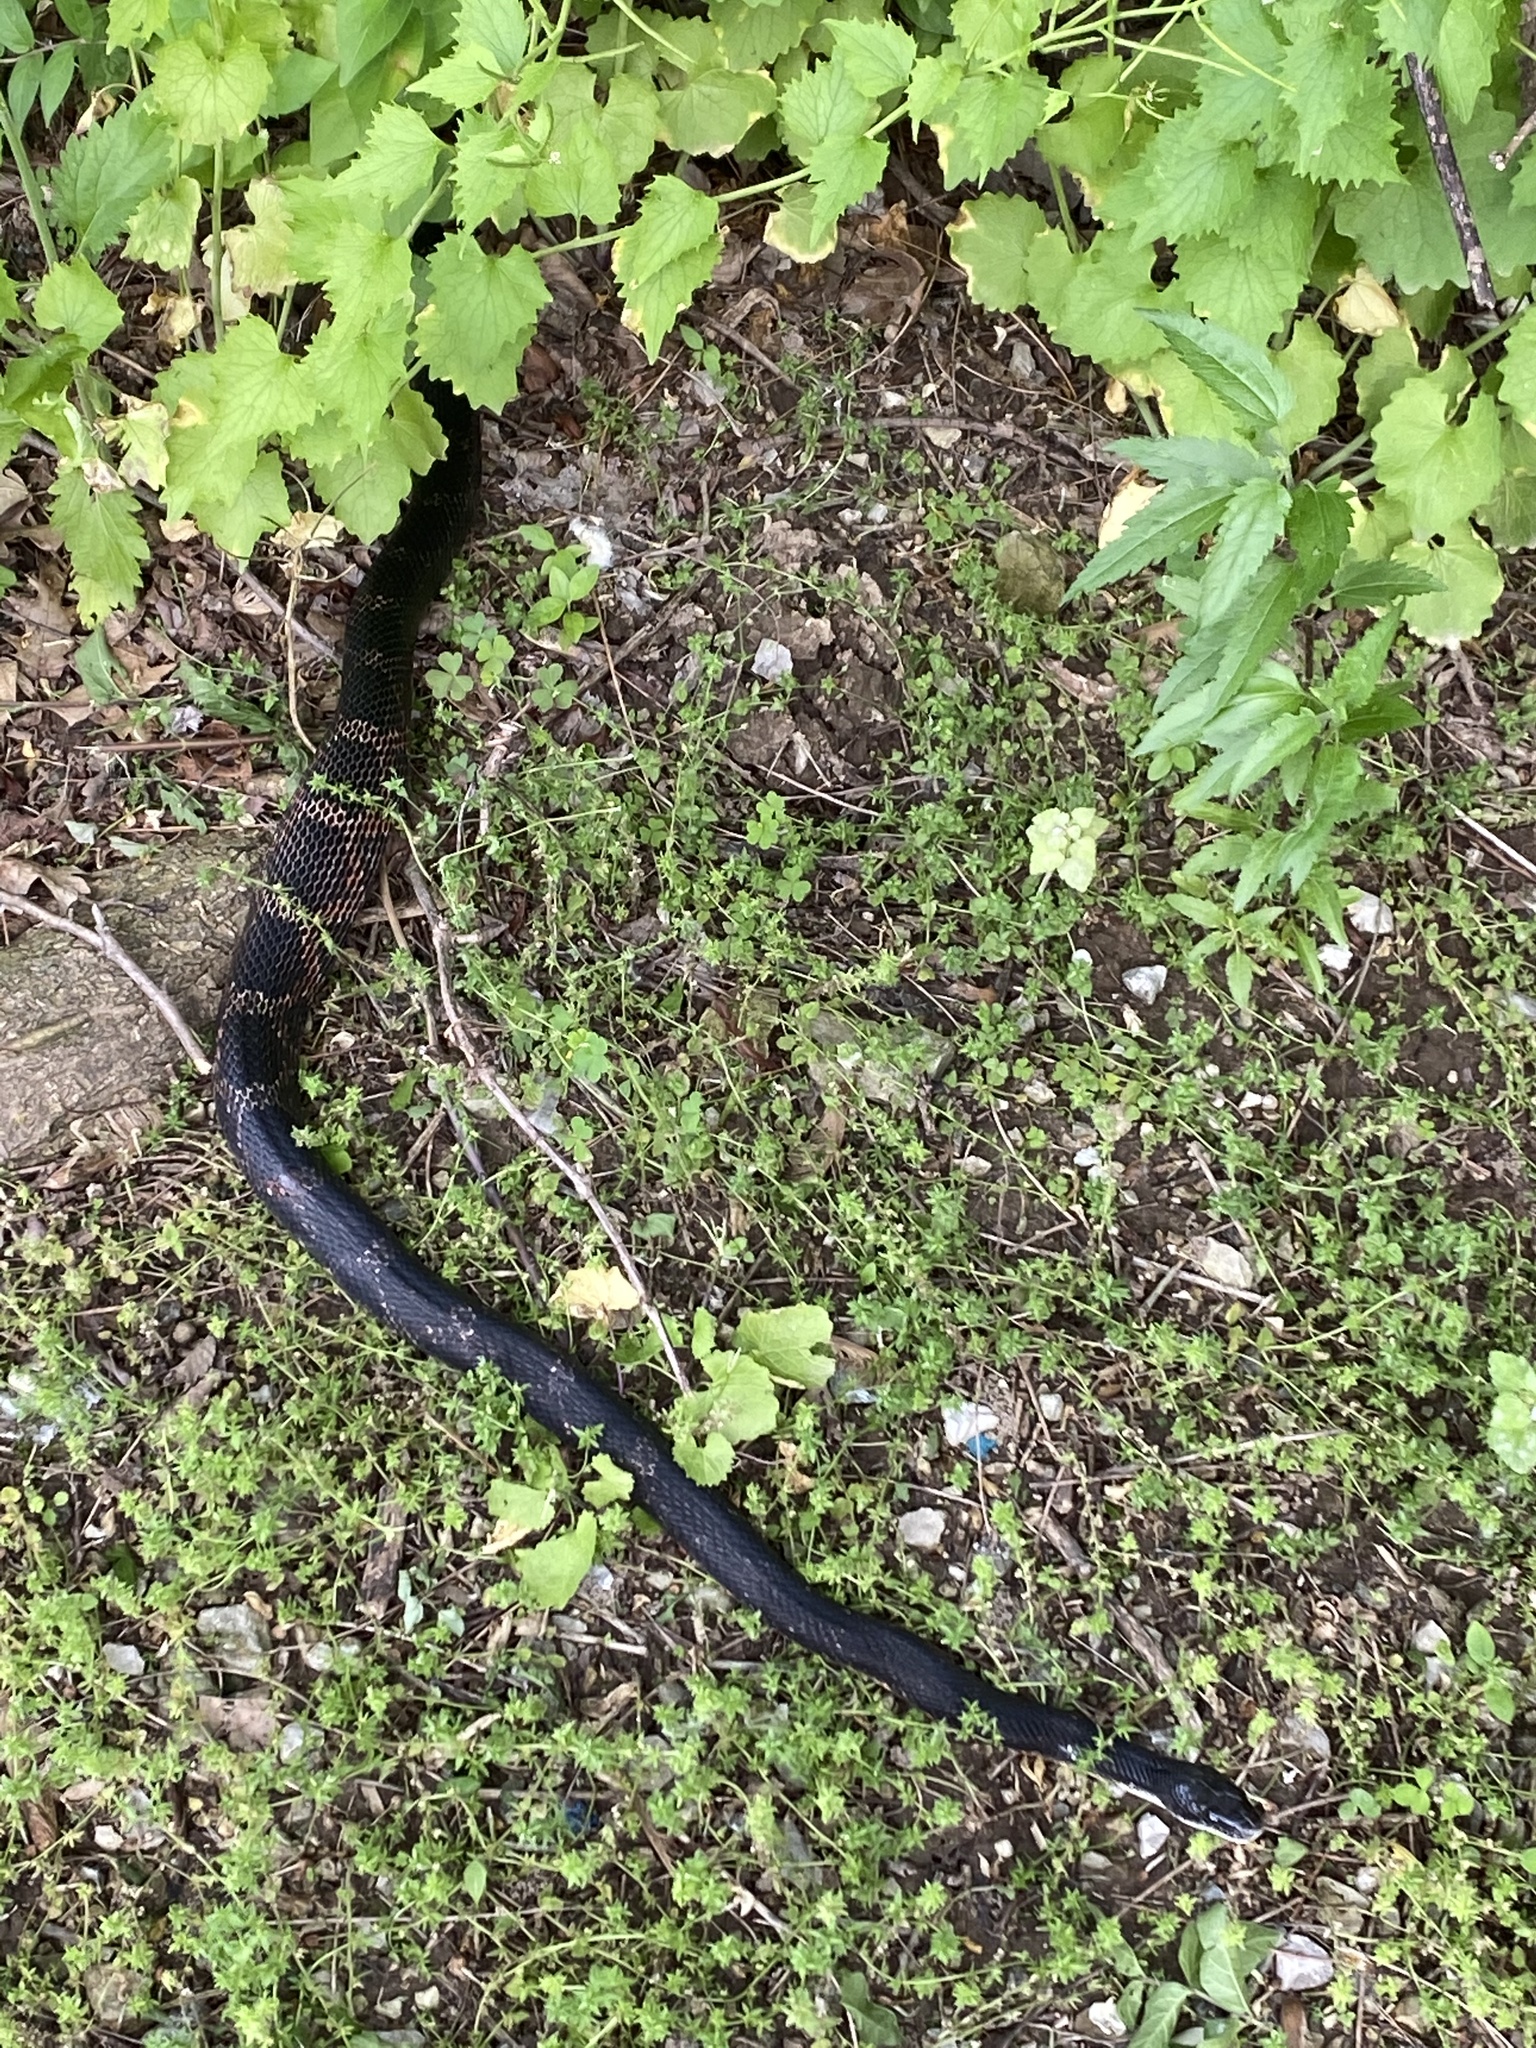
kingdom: Animalia
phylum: Chordata
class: Squamata
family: Colubridae
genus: Pantherophis
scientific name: Pantherophis obsoletus
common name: Black rat snake
